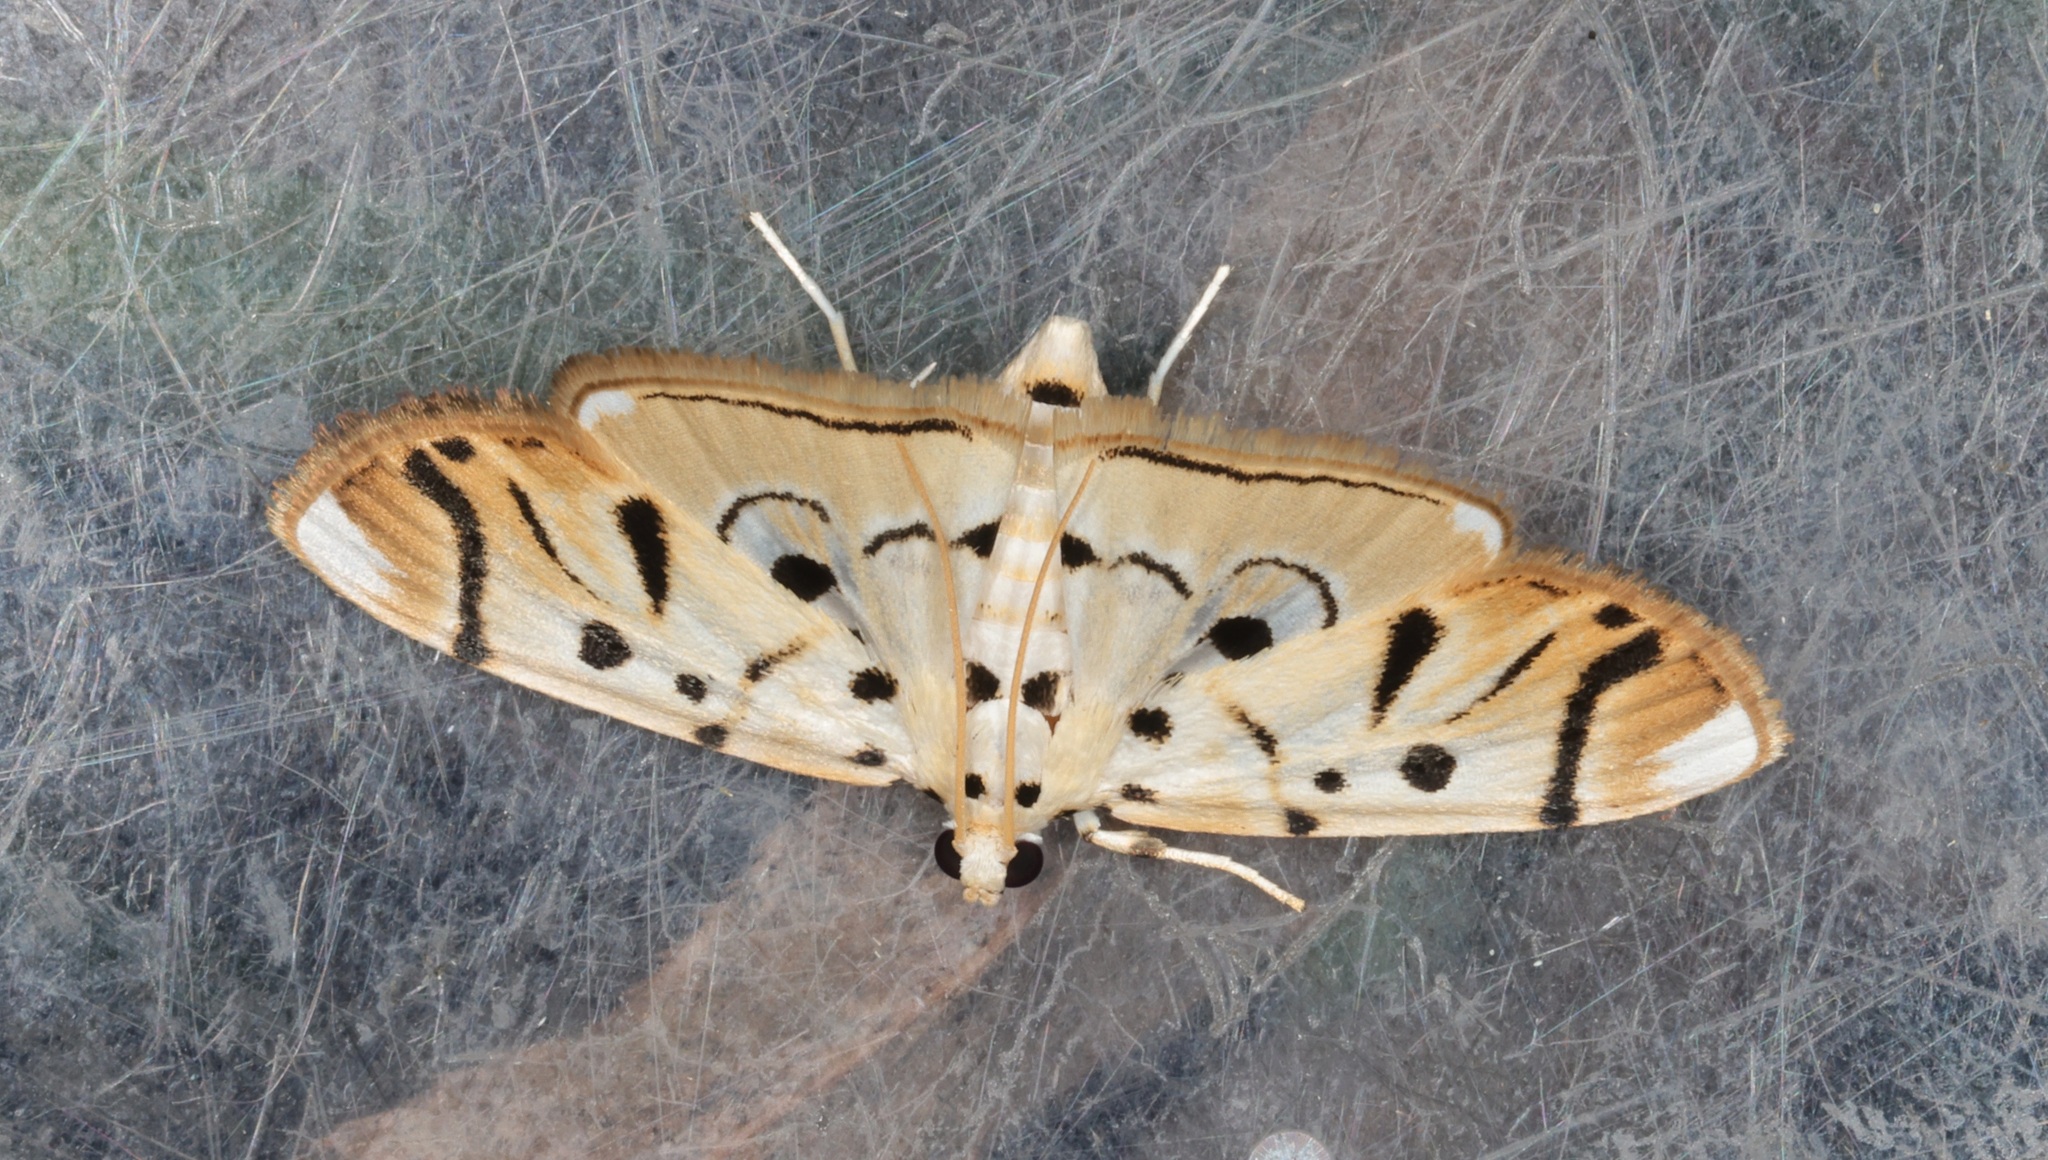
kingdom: Animalia
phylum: Arthropoda
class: Insecta
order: Lepidoptera
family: Crambidae
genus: Pycnarmon
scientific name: Pycnarmon radiata
